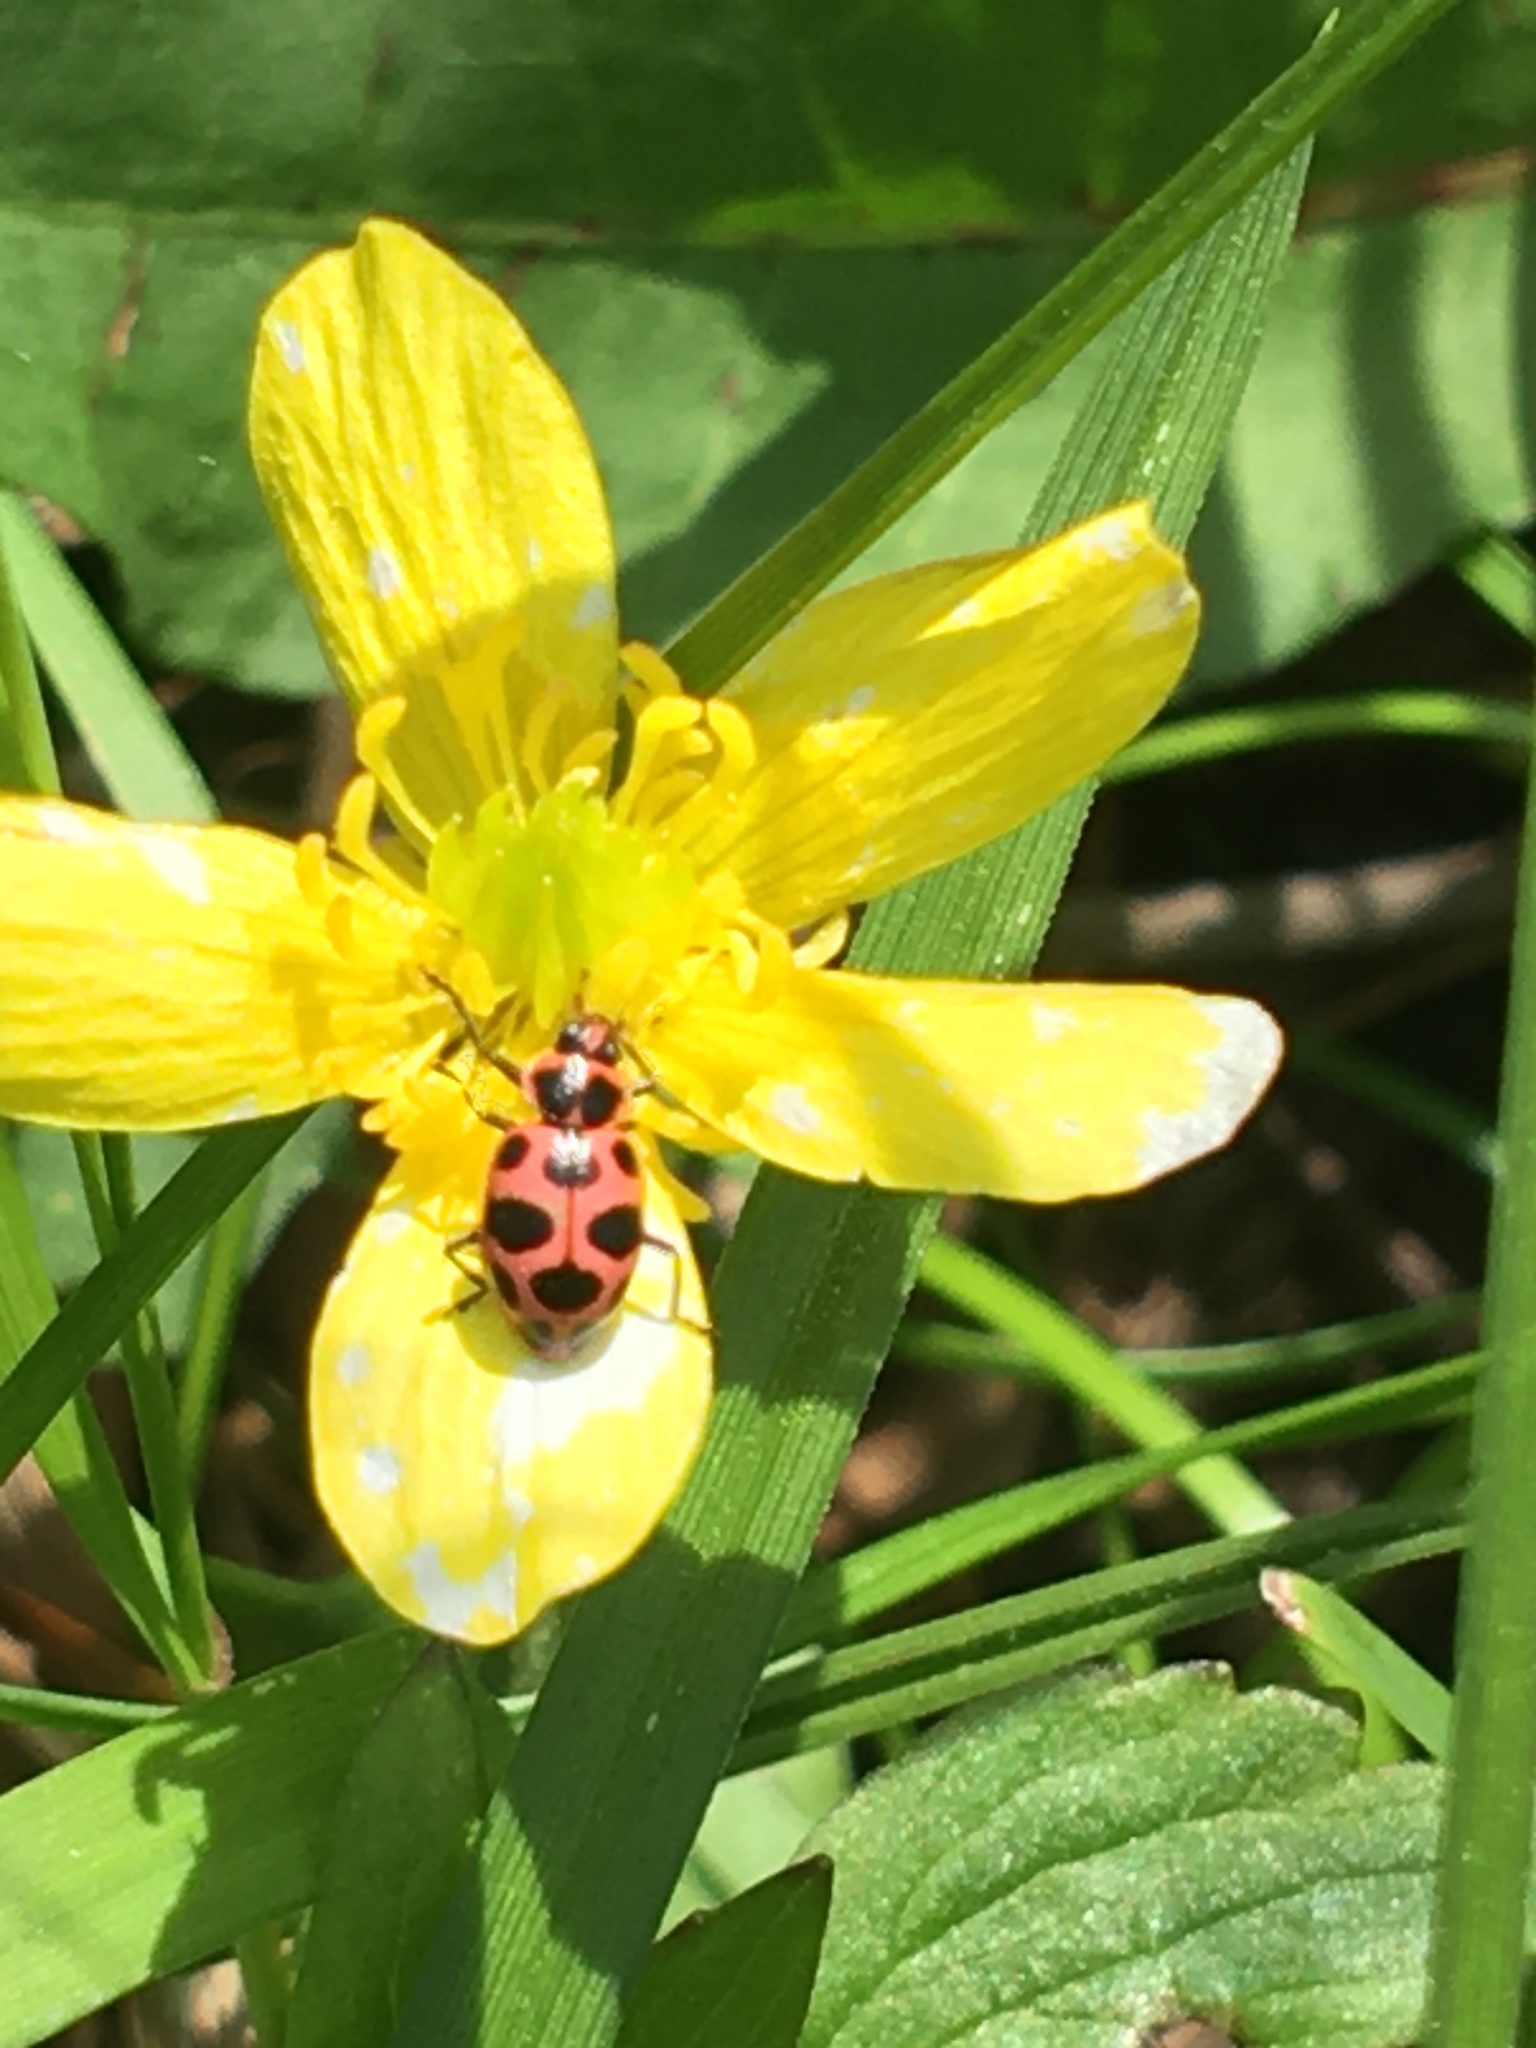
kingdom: Animalia
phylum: Arthropoda
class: Insecta
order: Coleoptera
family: Coccinellidae
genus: Coleomegilla
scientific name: Coleomegilla maculata
